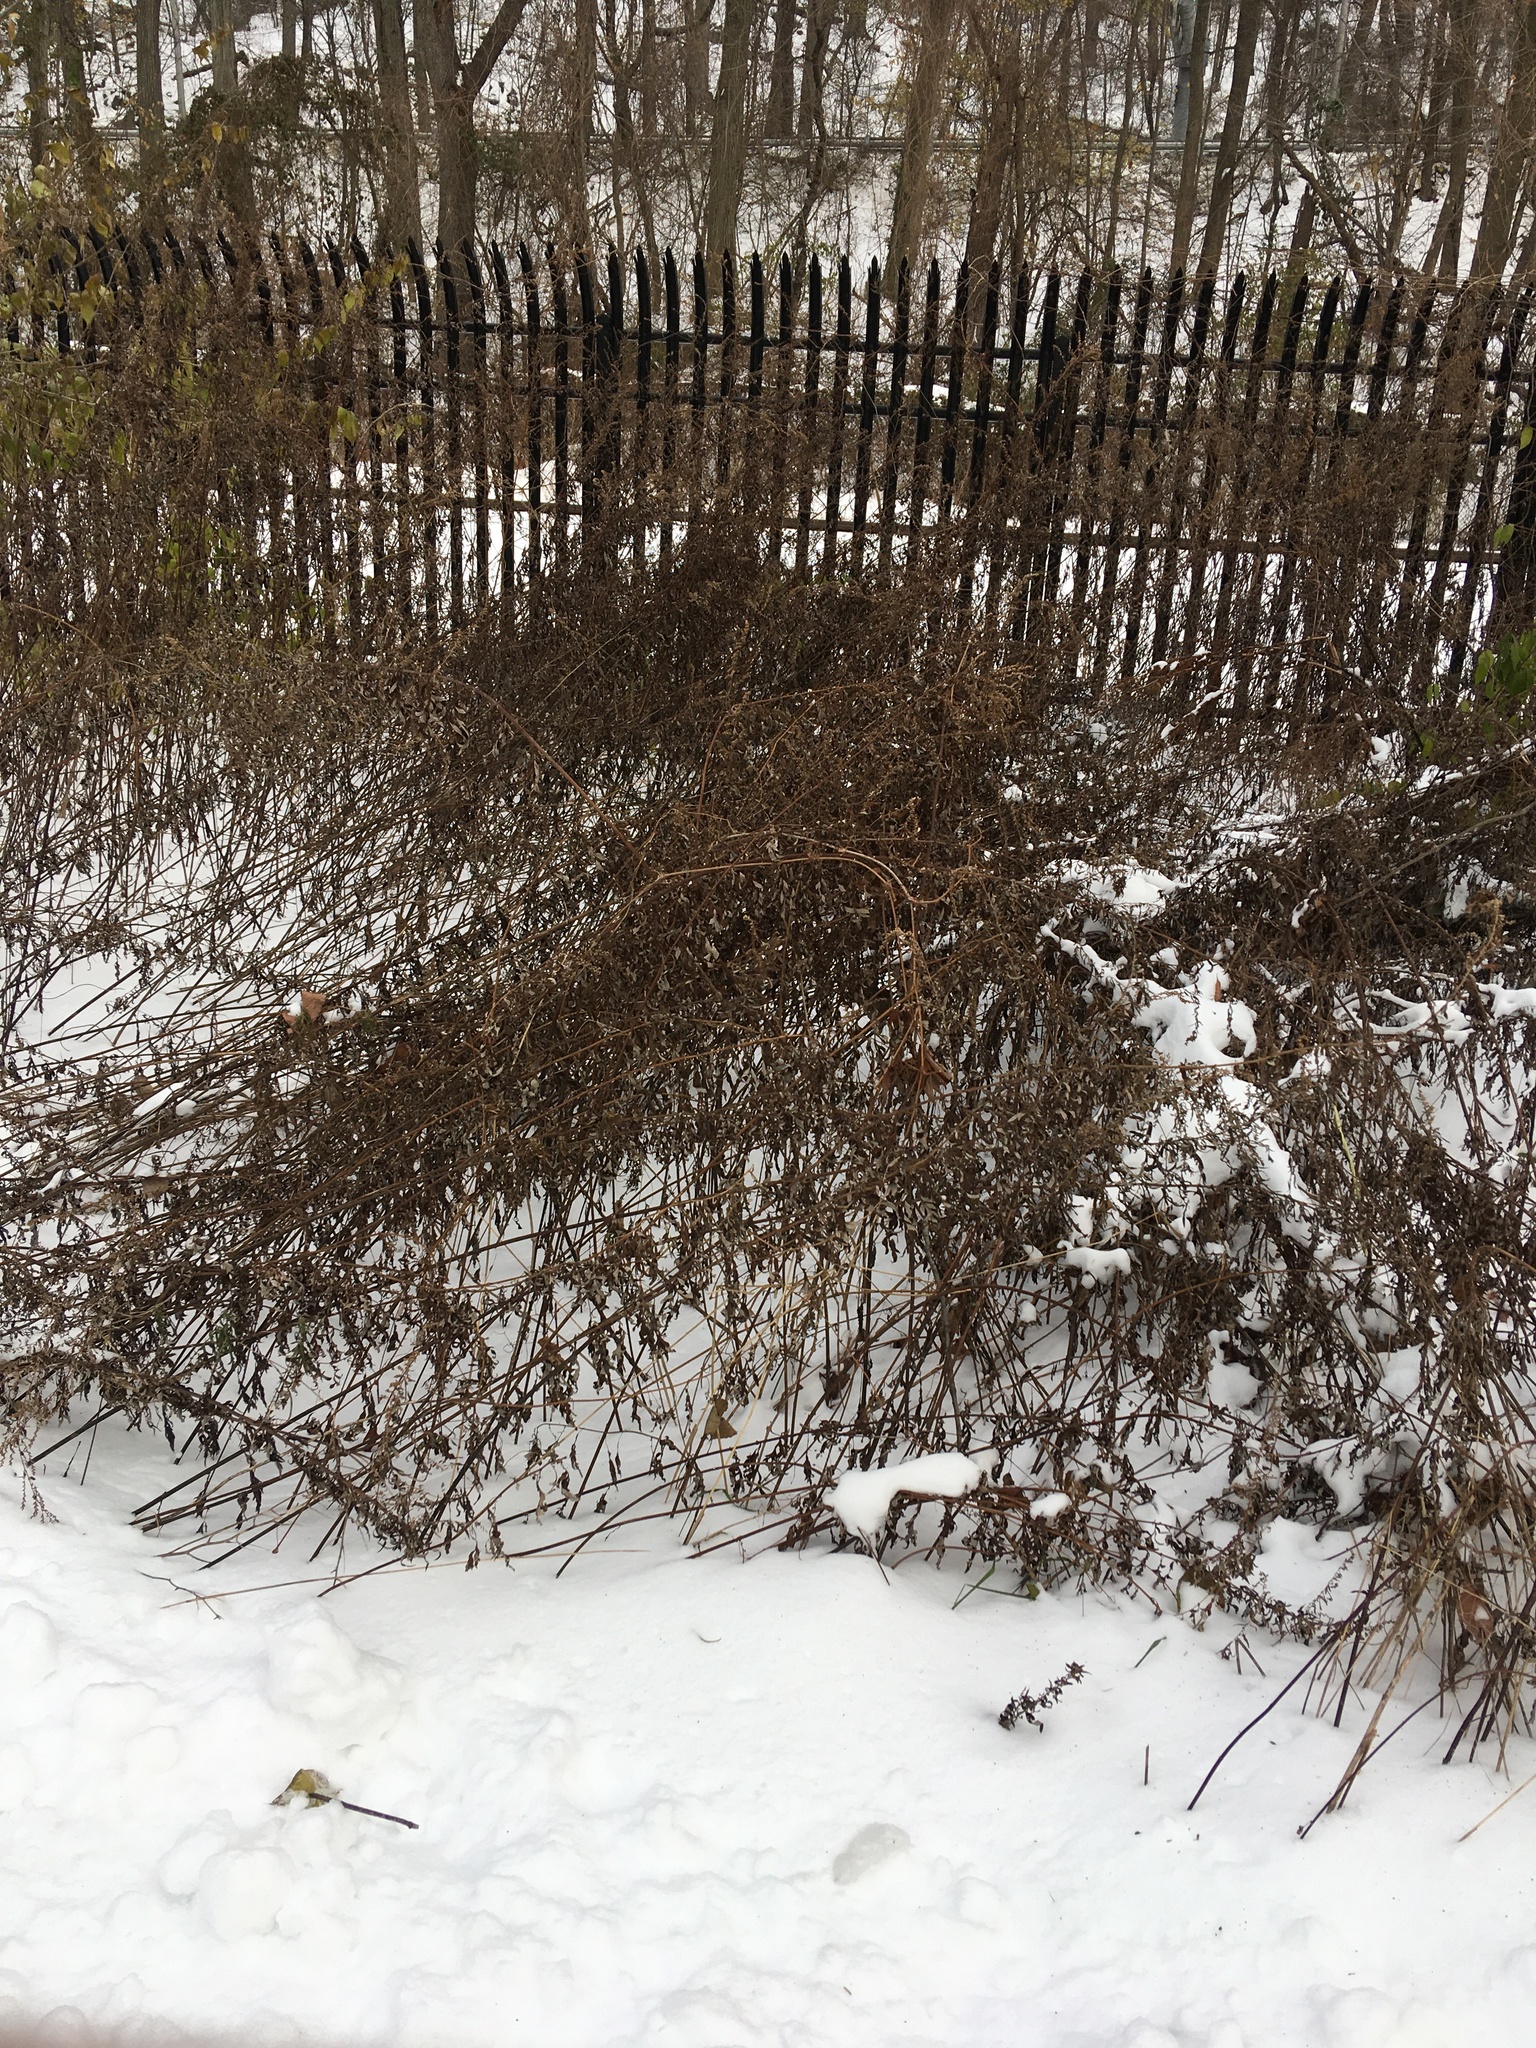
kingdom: Plantae
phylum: Tracheophyta
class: Magnoliopsida
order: Asterales
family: Asteraceae
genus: Artemisia
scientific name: Artemisia vulgaris
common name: Mugwort
